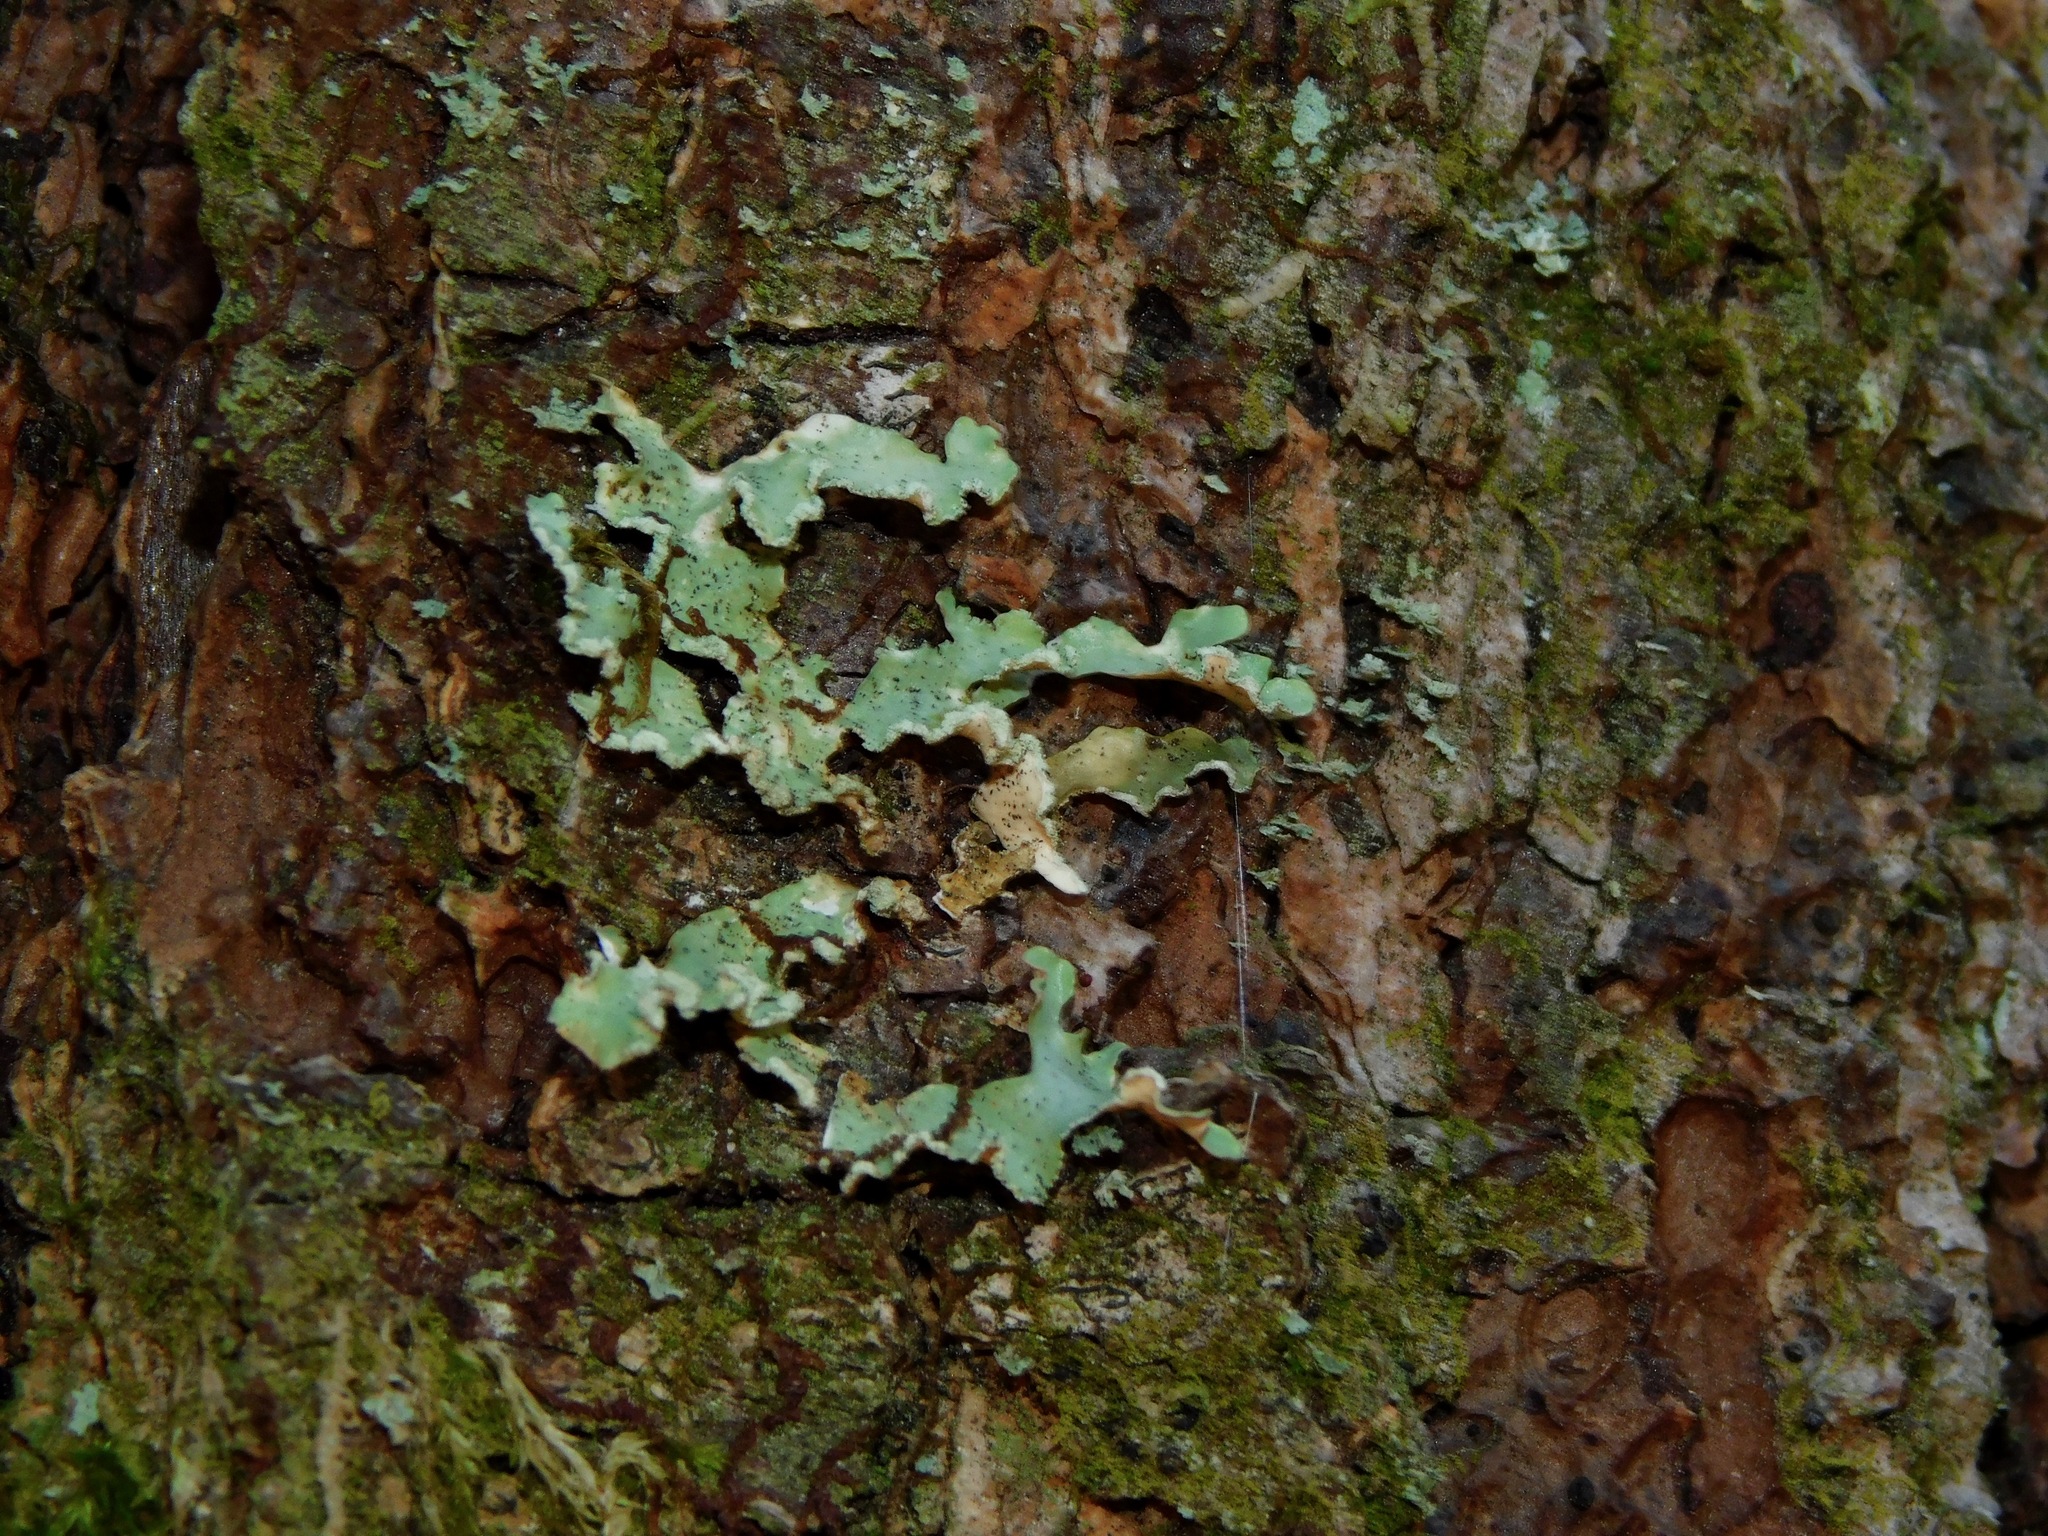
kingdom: Fungi
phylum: Ascomycota
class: Lecanoromycetes
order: Lecanorales
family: Parmeliaceae
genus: Usnocetraria
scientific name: Usnocetraria oakesiana
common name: Yellow ribbon lichen
